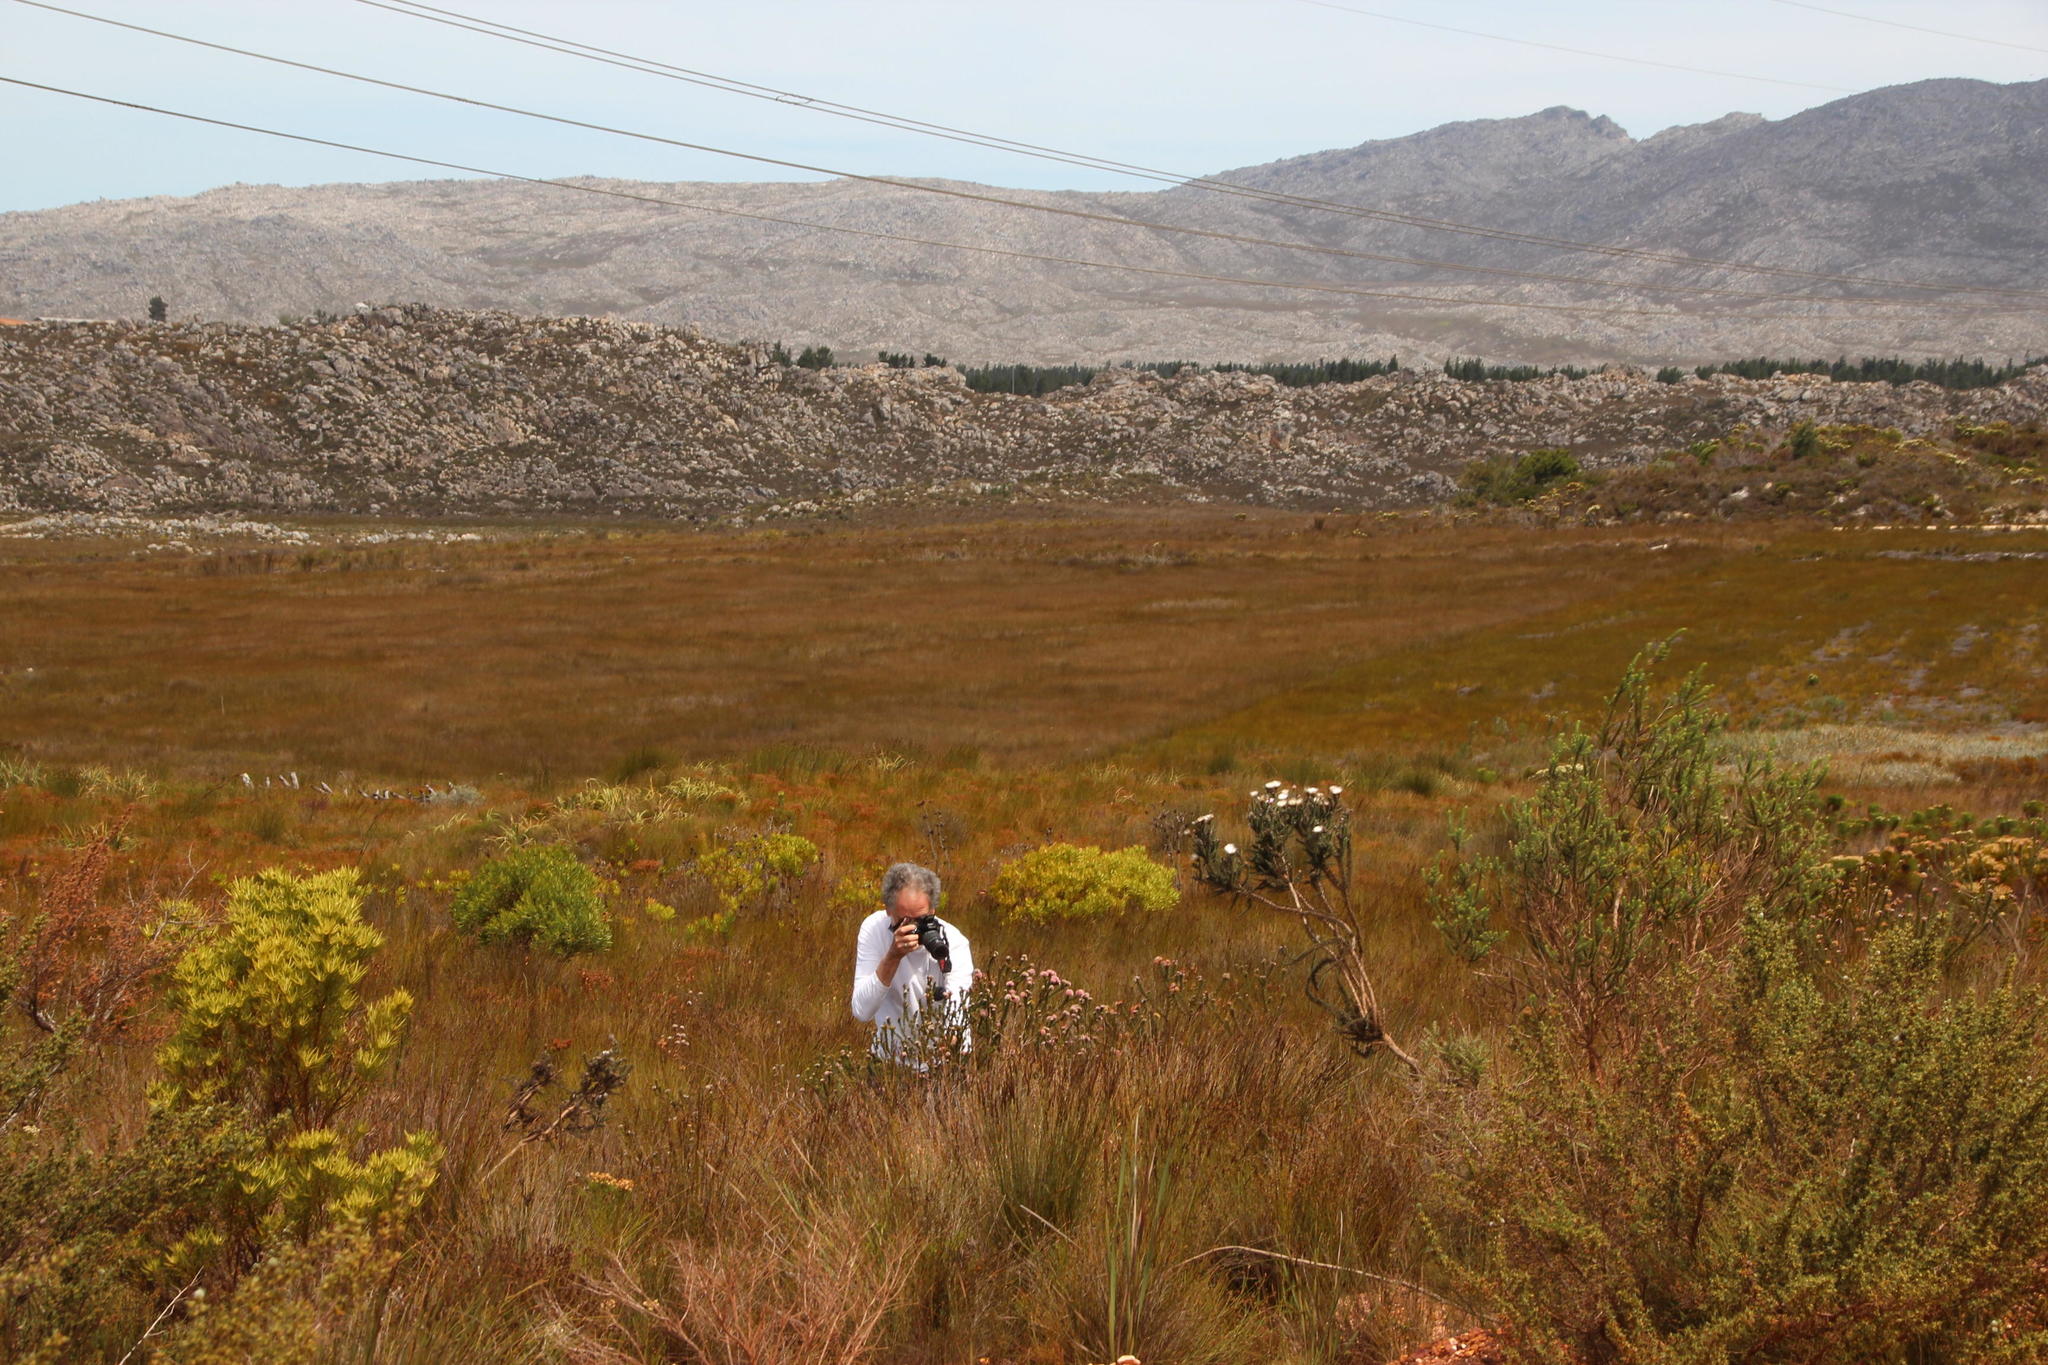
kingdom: Plantae
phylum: Tracheophyta
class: Magnoliopsida
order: Proteales
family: Proteaceae
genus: Leucadendron
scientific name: Leucadendron xanthoconus
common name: Sickle-leaf conebush
